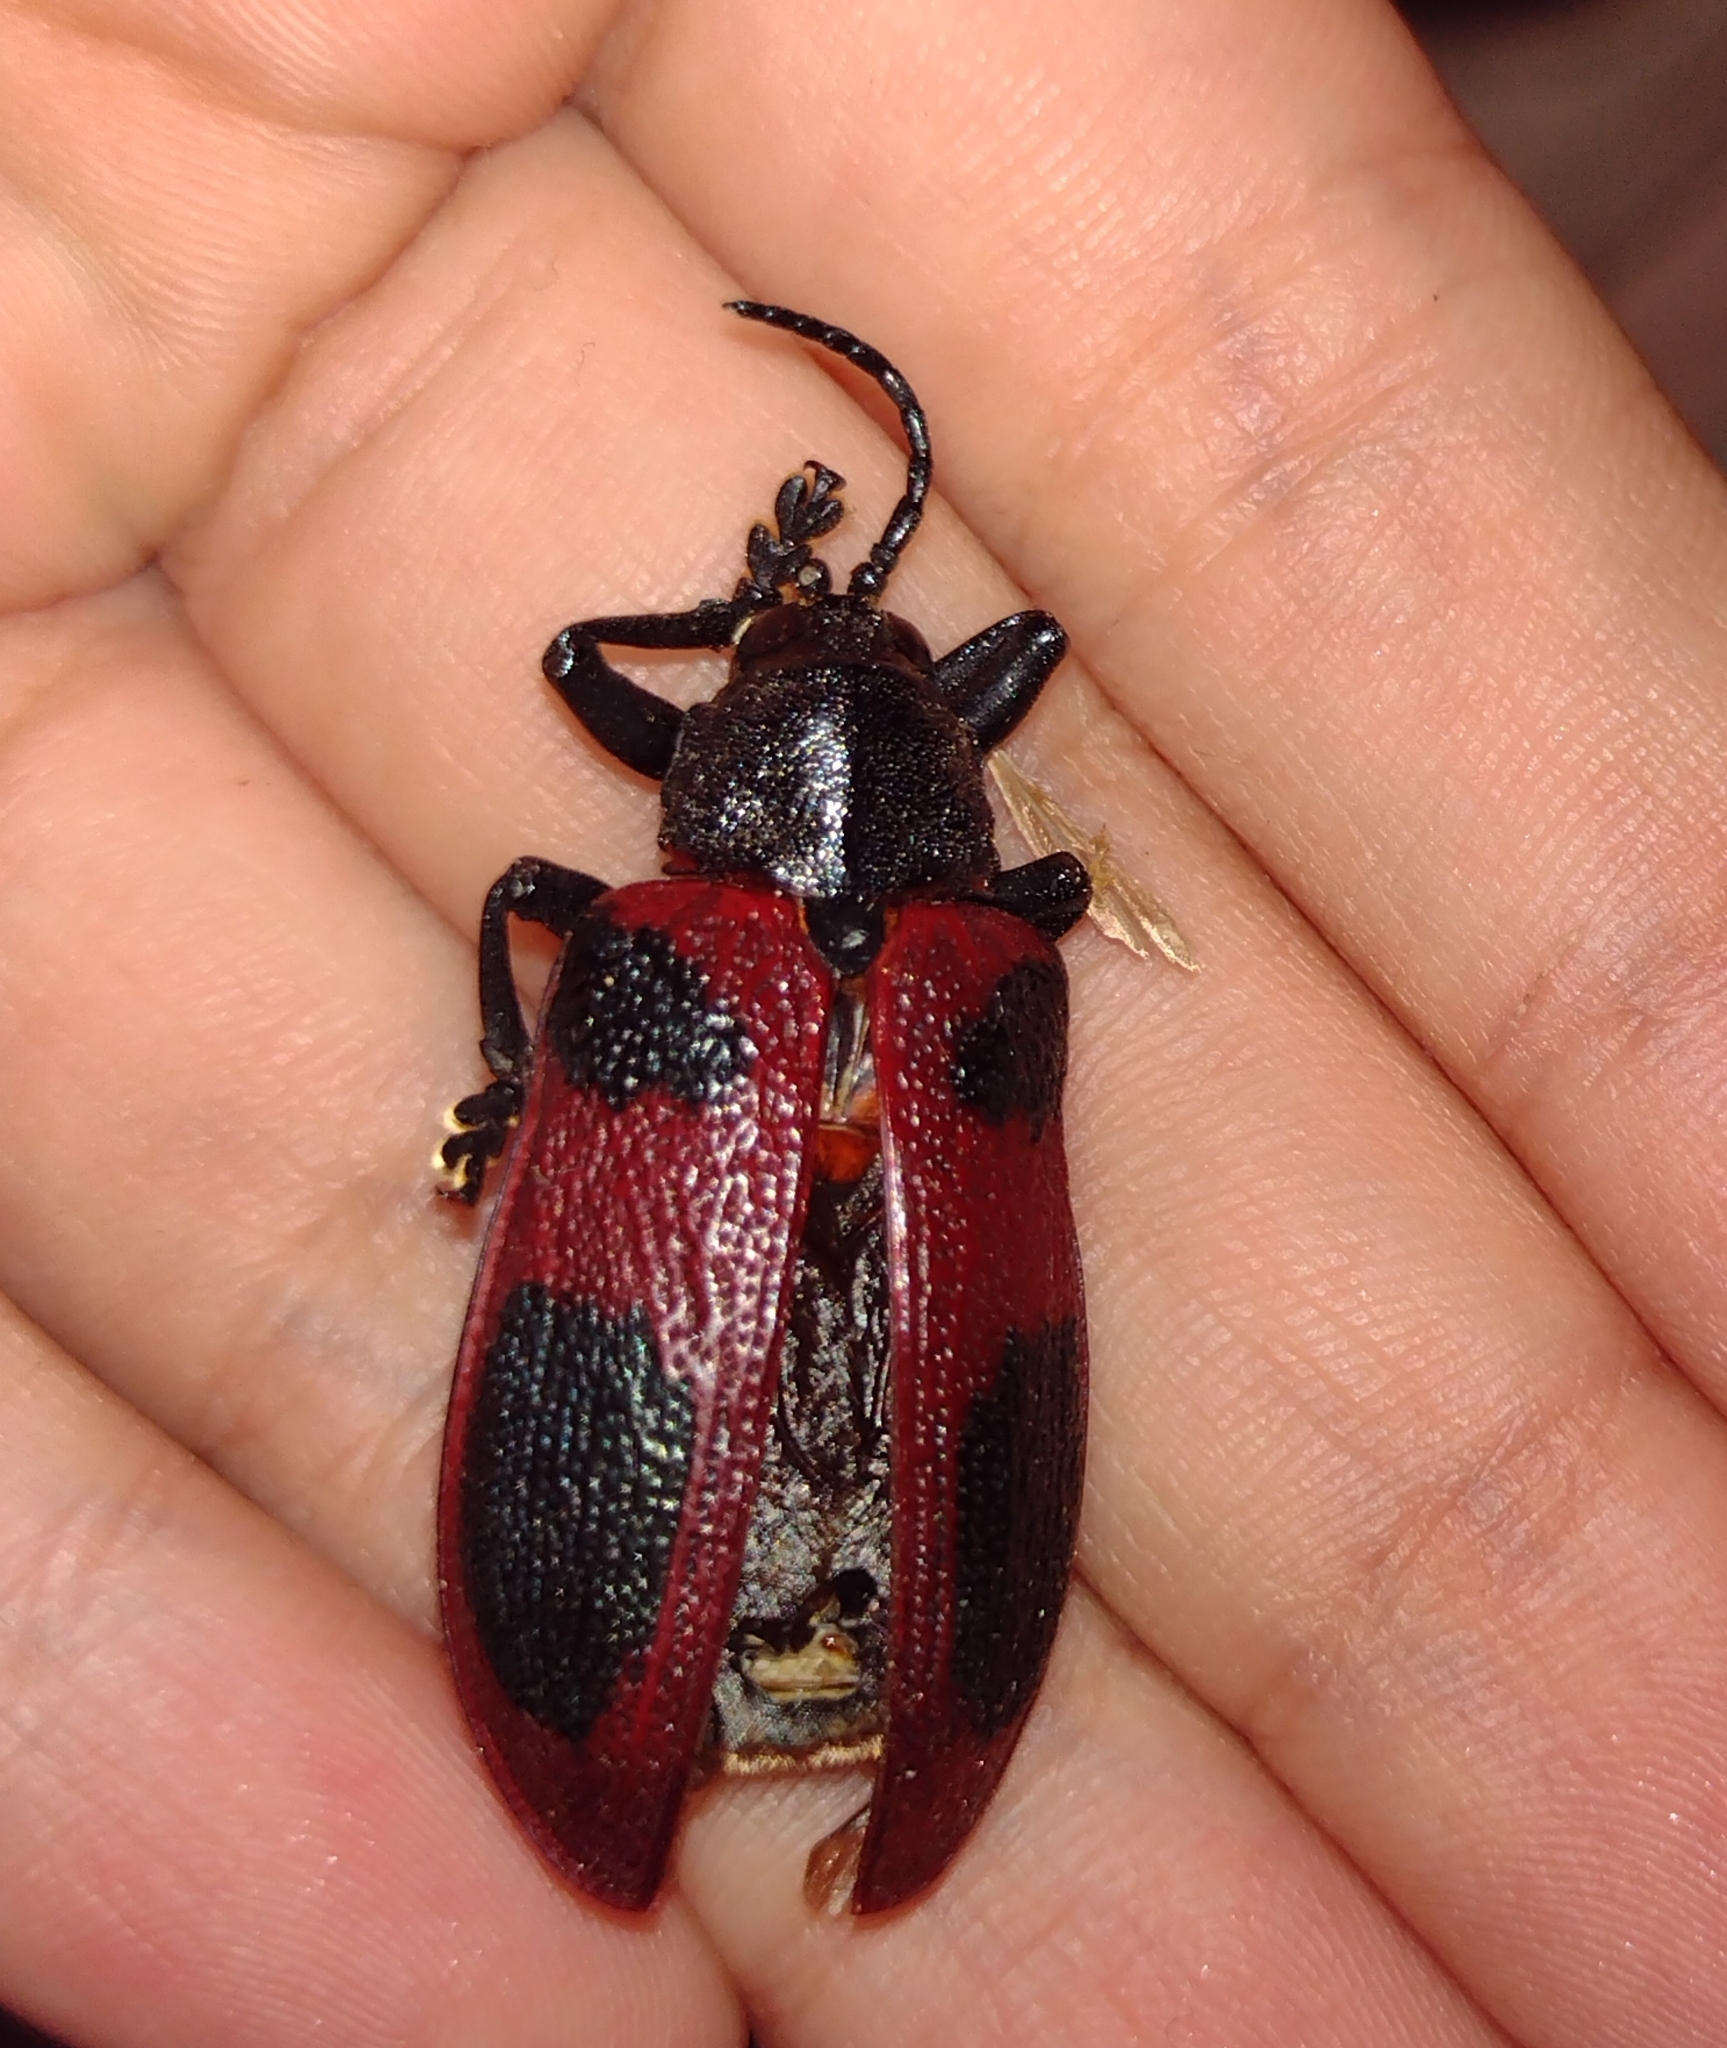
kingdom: Animalia
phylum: Arthropoda
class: Insecta
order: Coleoptera
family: Chrysomelidae
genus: Coraliomela
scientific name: Coraliomela quadrimaculata
